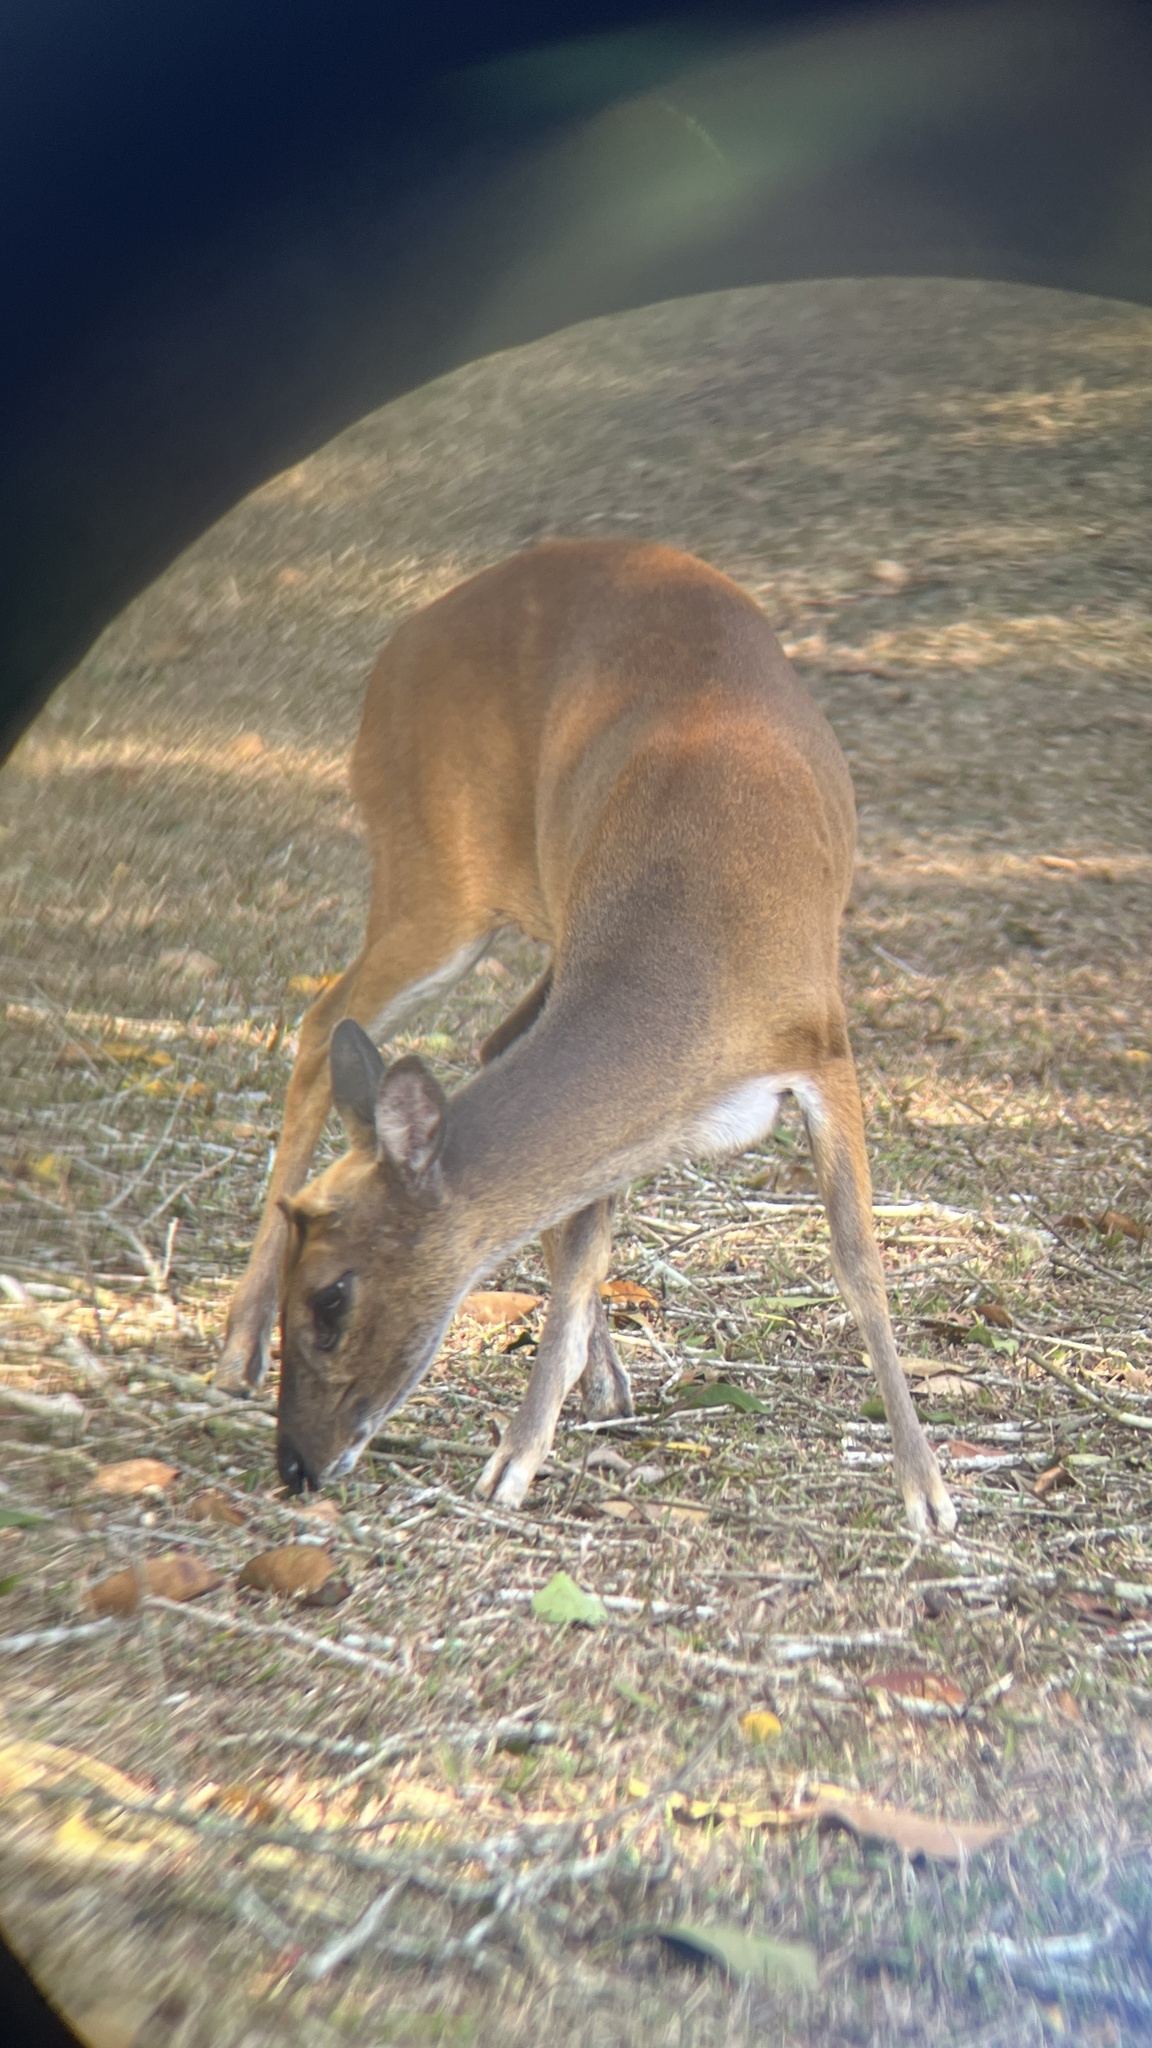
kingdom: Animalia
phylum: Chordata
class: Mammalia
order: Artiodactyla
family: Cervidae
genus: Muntiacus
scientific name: Muntiacus muntjak
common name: Indian muntjac
